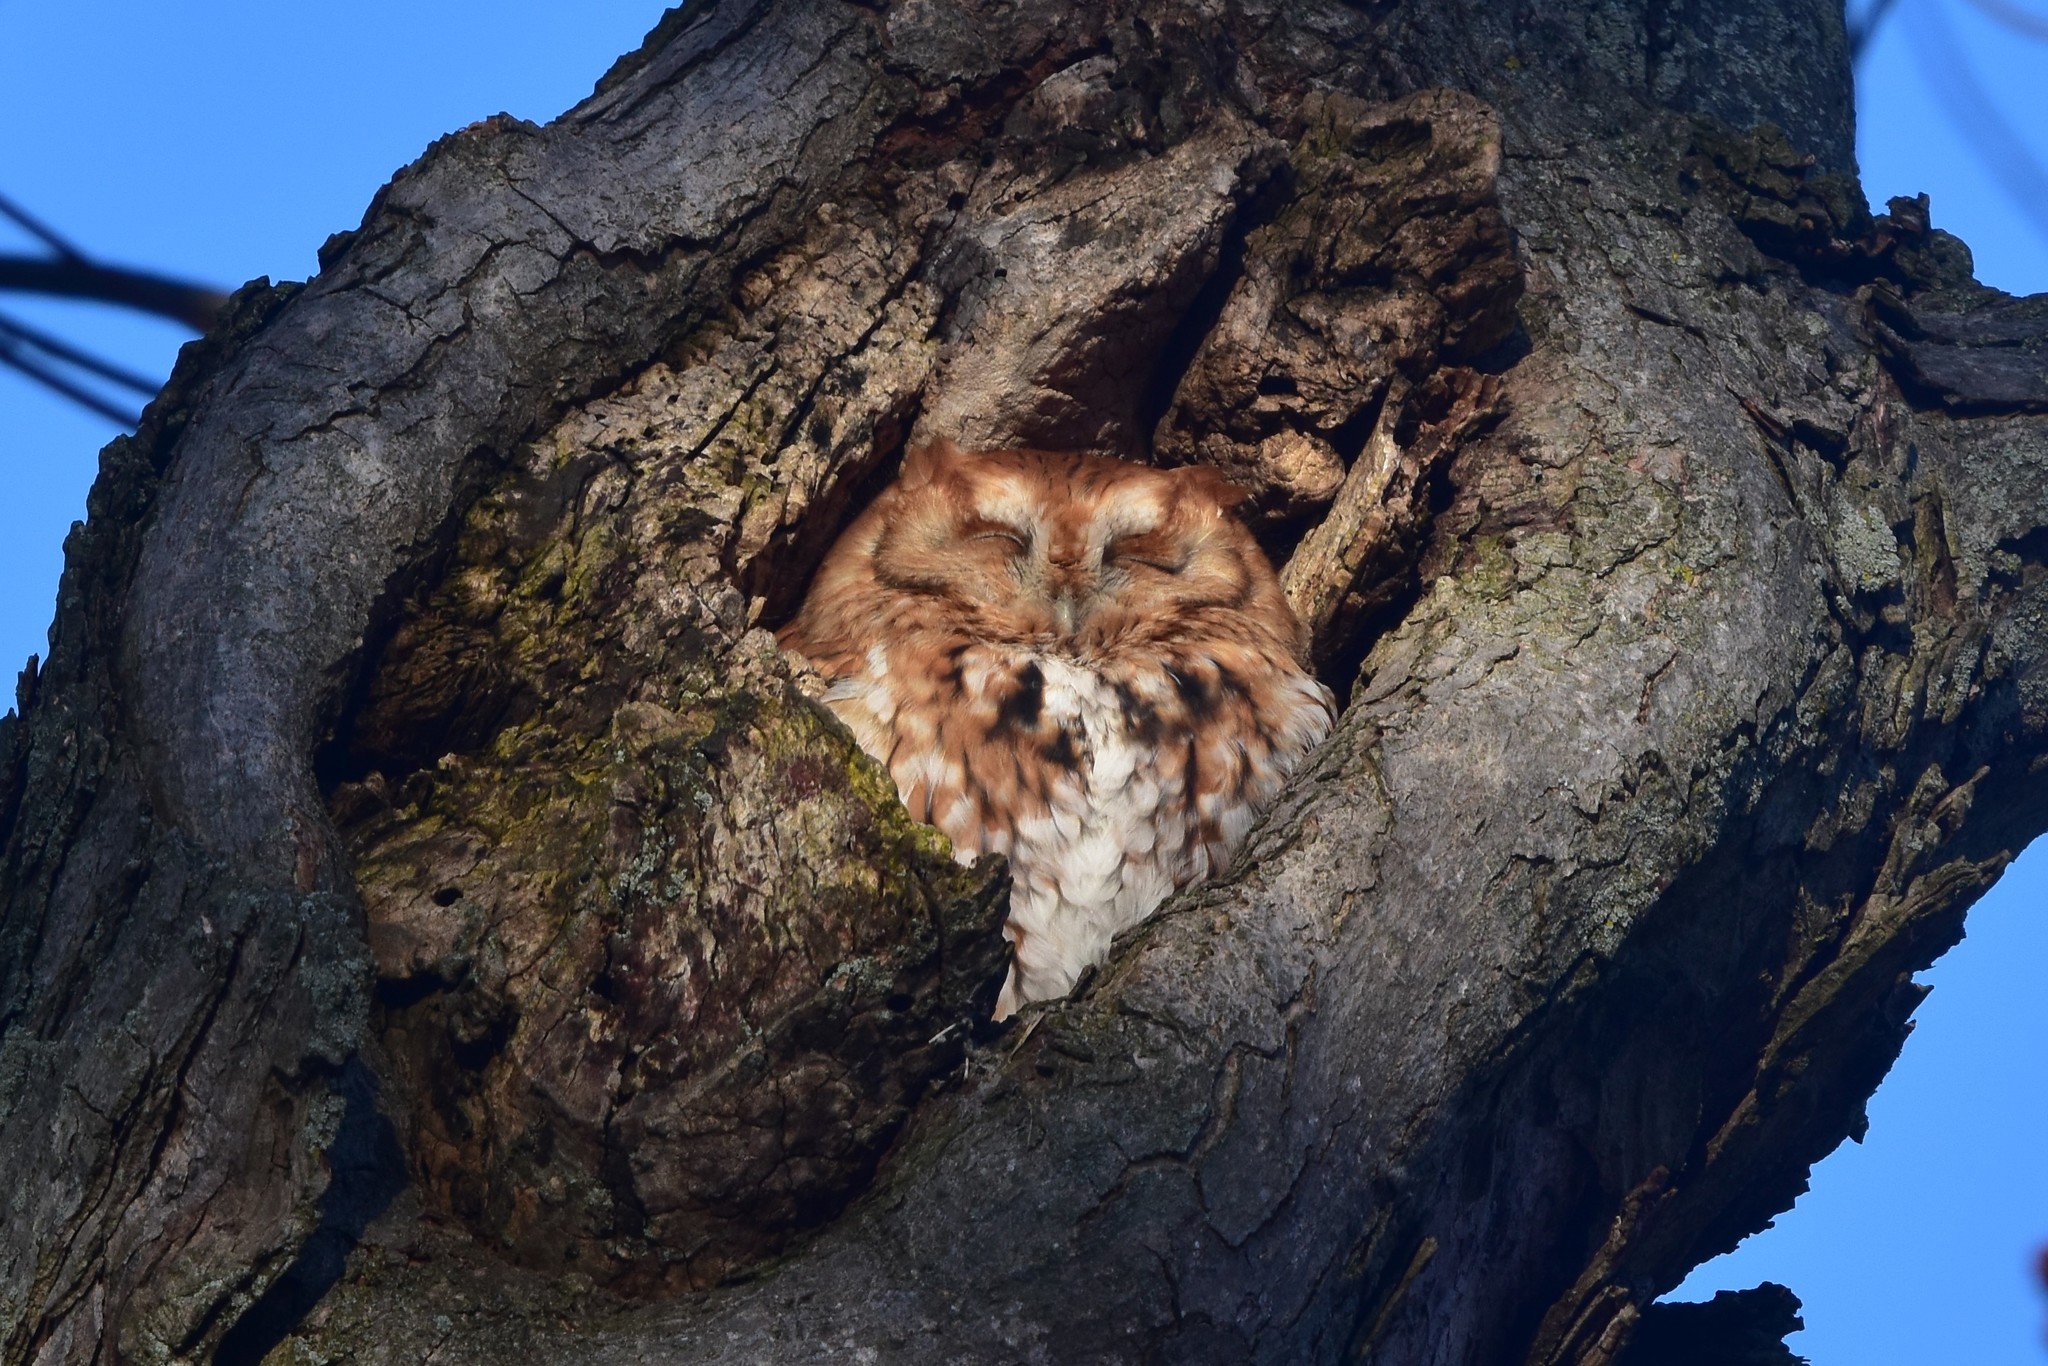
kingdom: Animalia
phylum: Chordata
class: Aves
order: Strigiformes
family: Strigidae
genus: Megascops
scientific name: Megascops asio
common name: Eastern screech-owl
